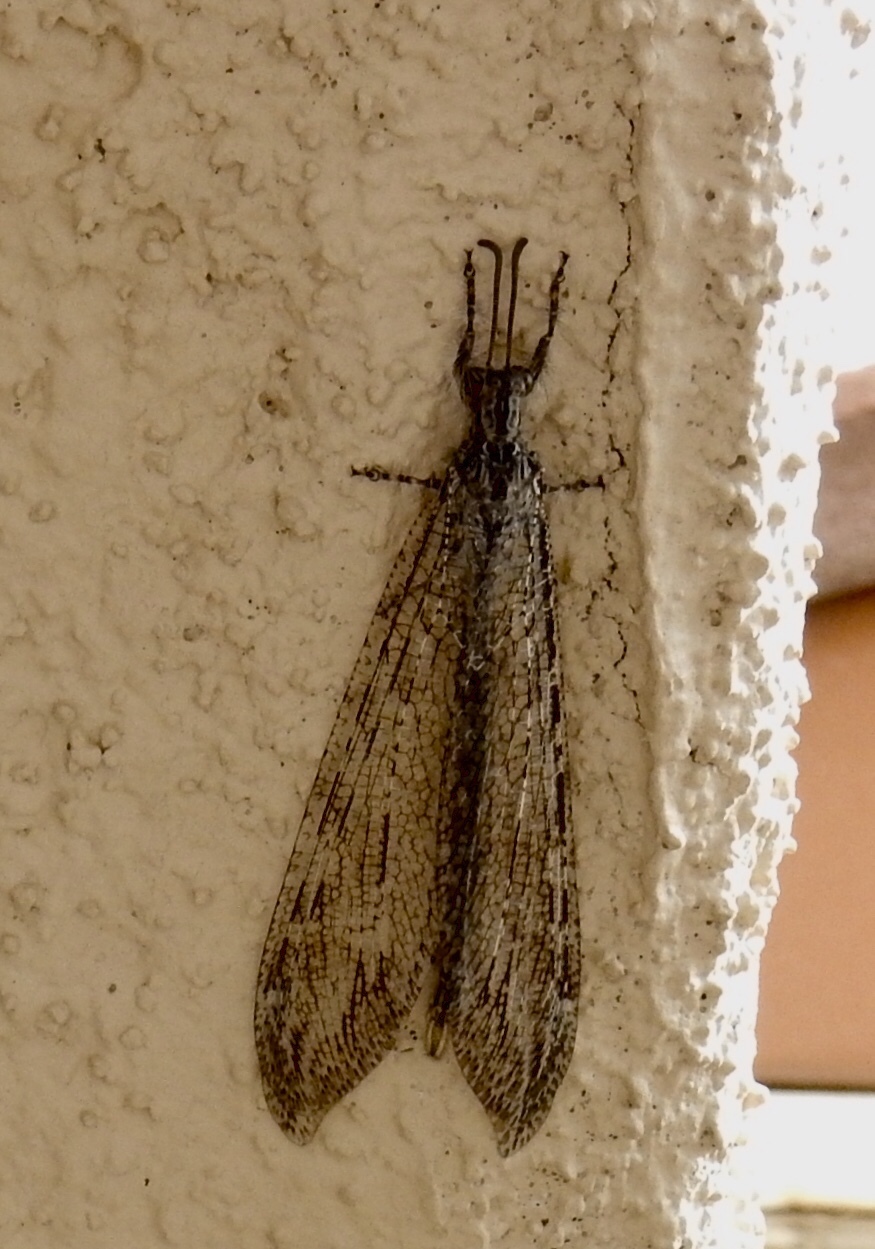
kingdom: Animalia
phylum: Arthropoda
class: Insecta
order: Neuroptera
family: Myrmeleontidae
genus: Vella
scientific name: Vella fallax
